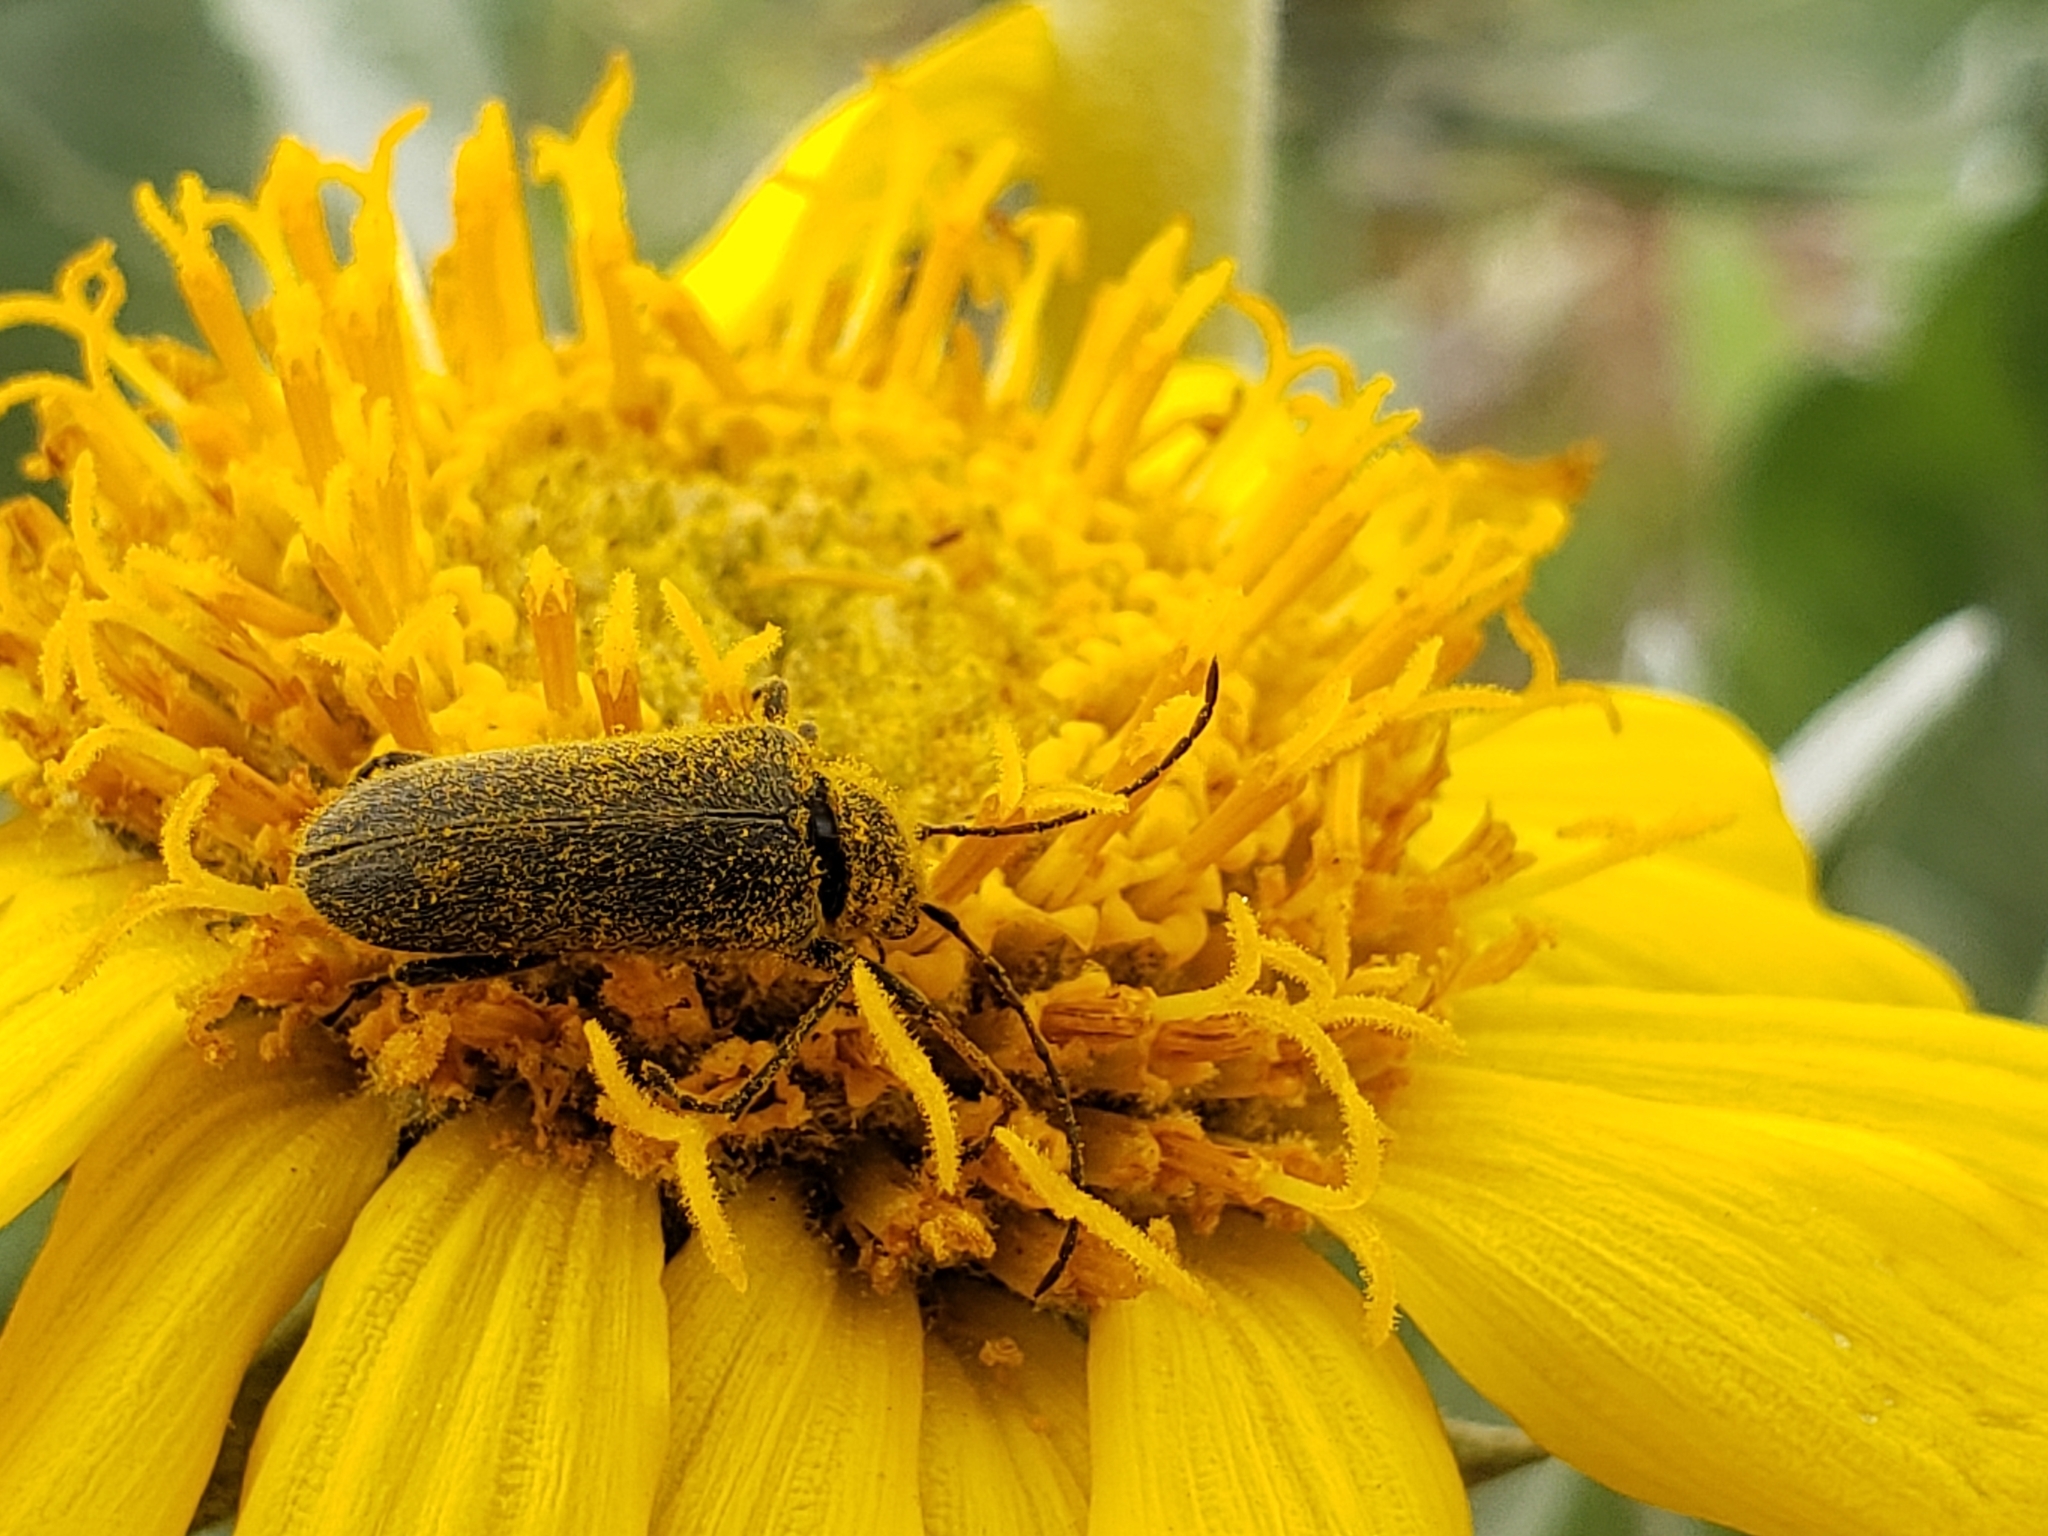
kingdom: Animalia
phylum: Arthropoda
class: Insecta
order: Coleoptera
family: Cerambycidae
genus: Anastrangalia
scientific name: Anastrangalia laetifica
